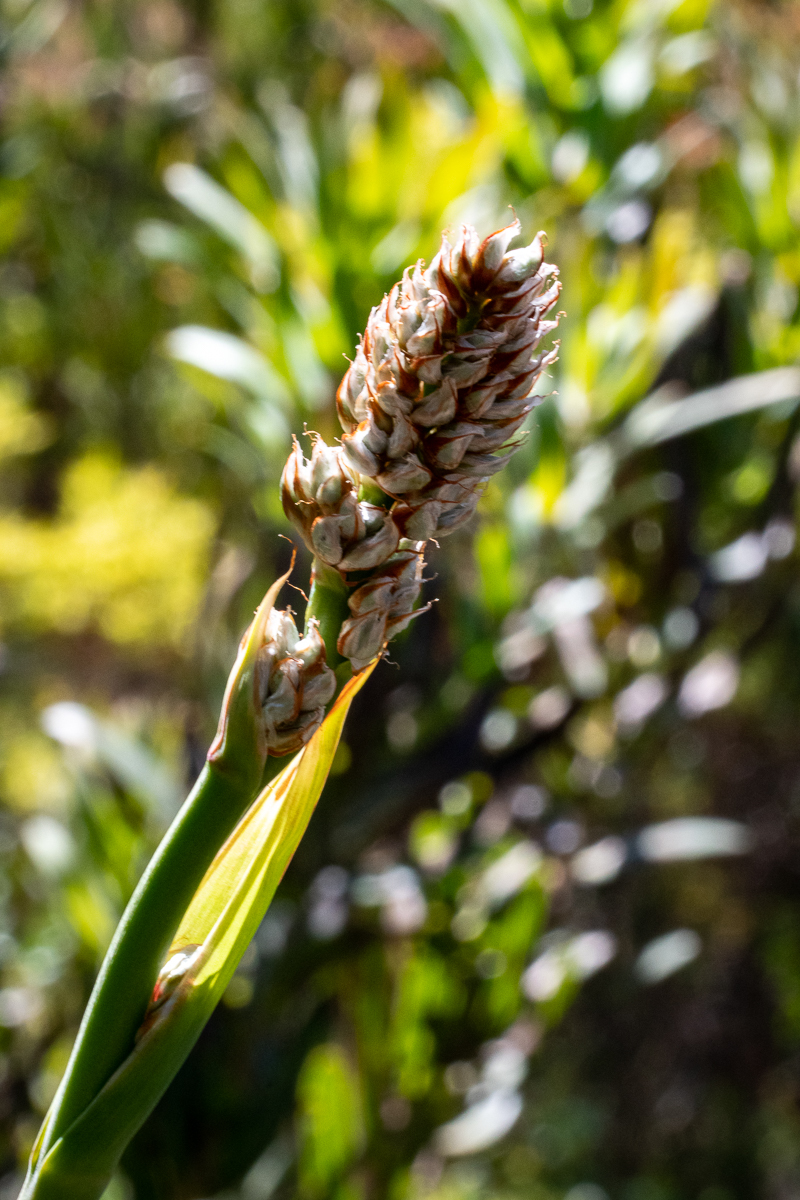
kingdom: Plantae
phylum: Tracheophyta
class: Liliopsida
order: Asparagales
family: Iridaceae
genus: Aristea
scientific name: Aristea capitata
